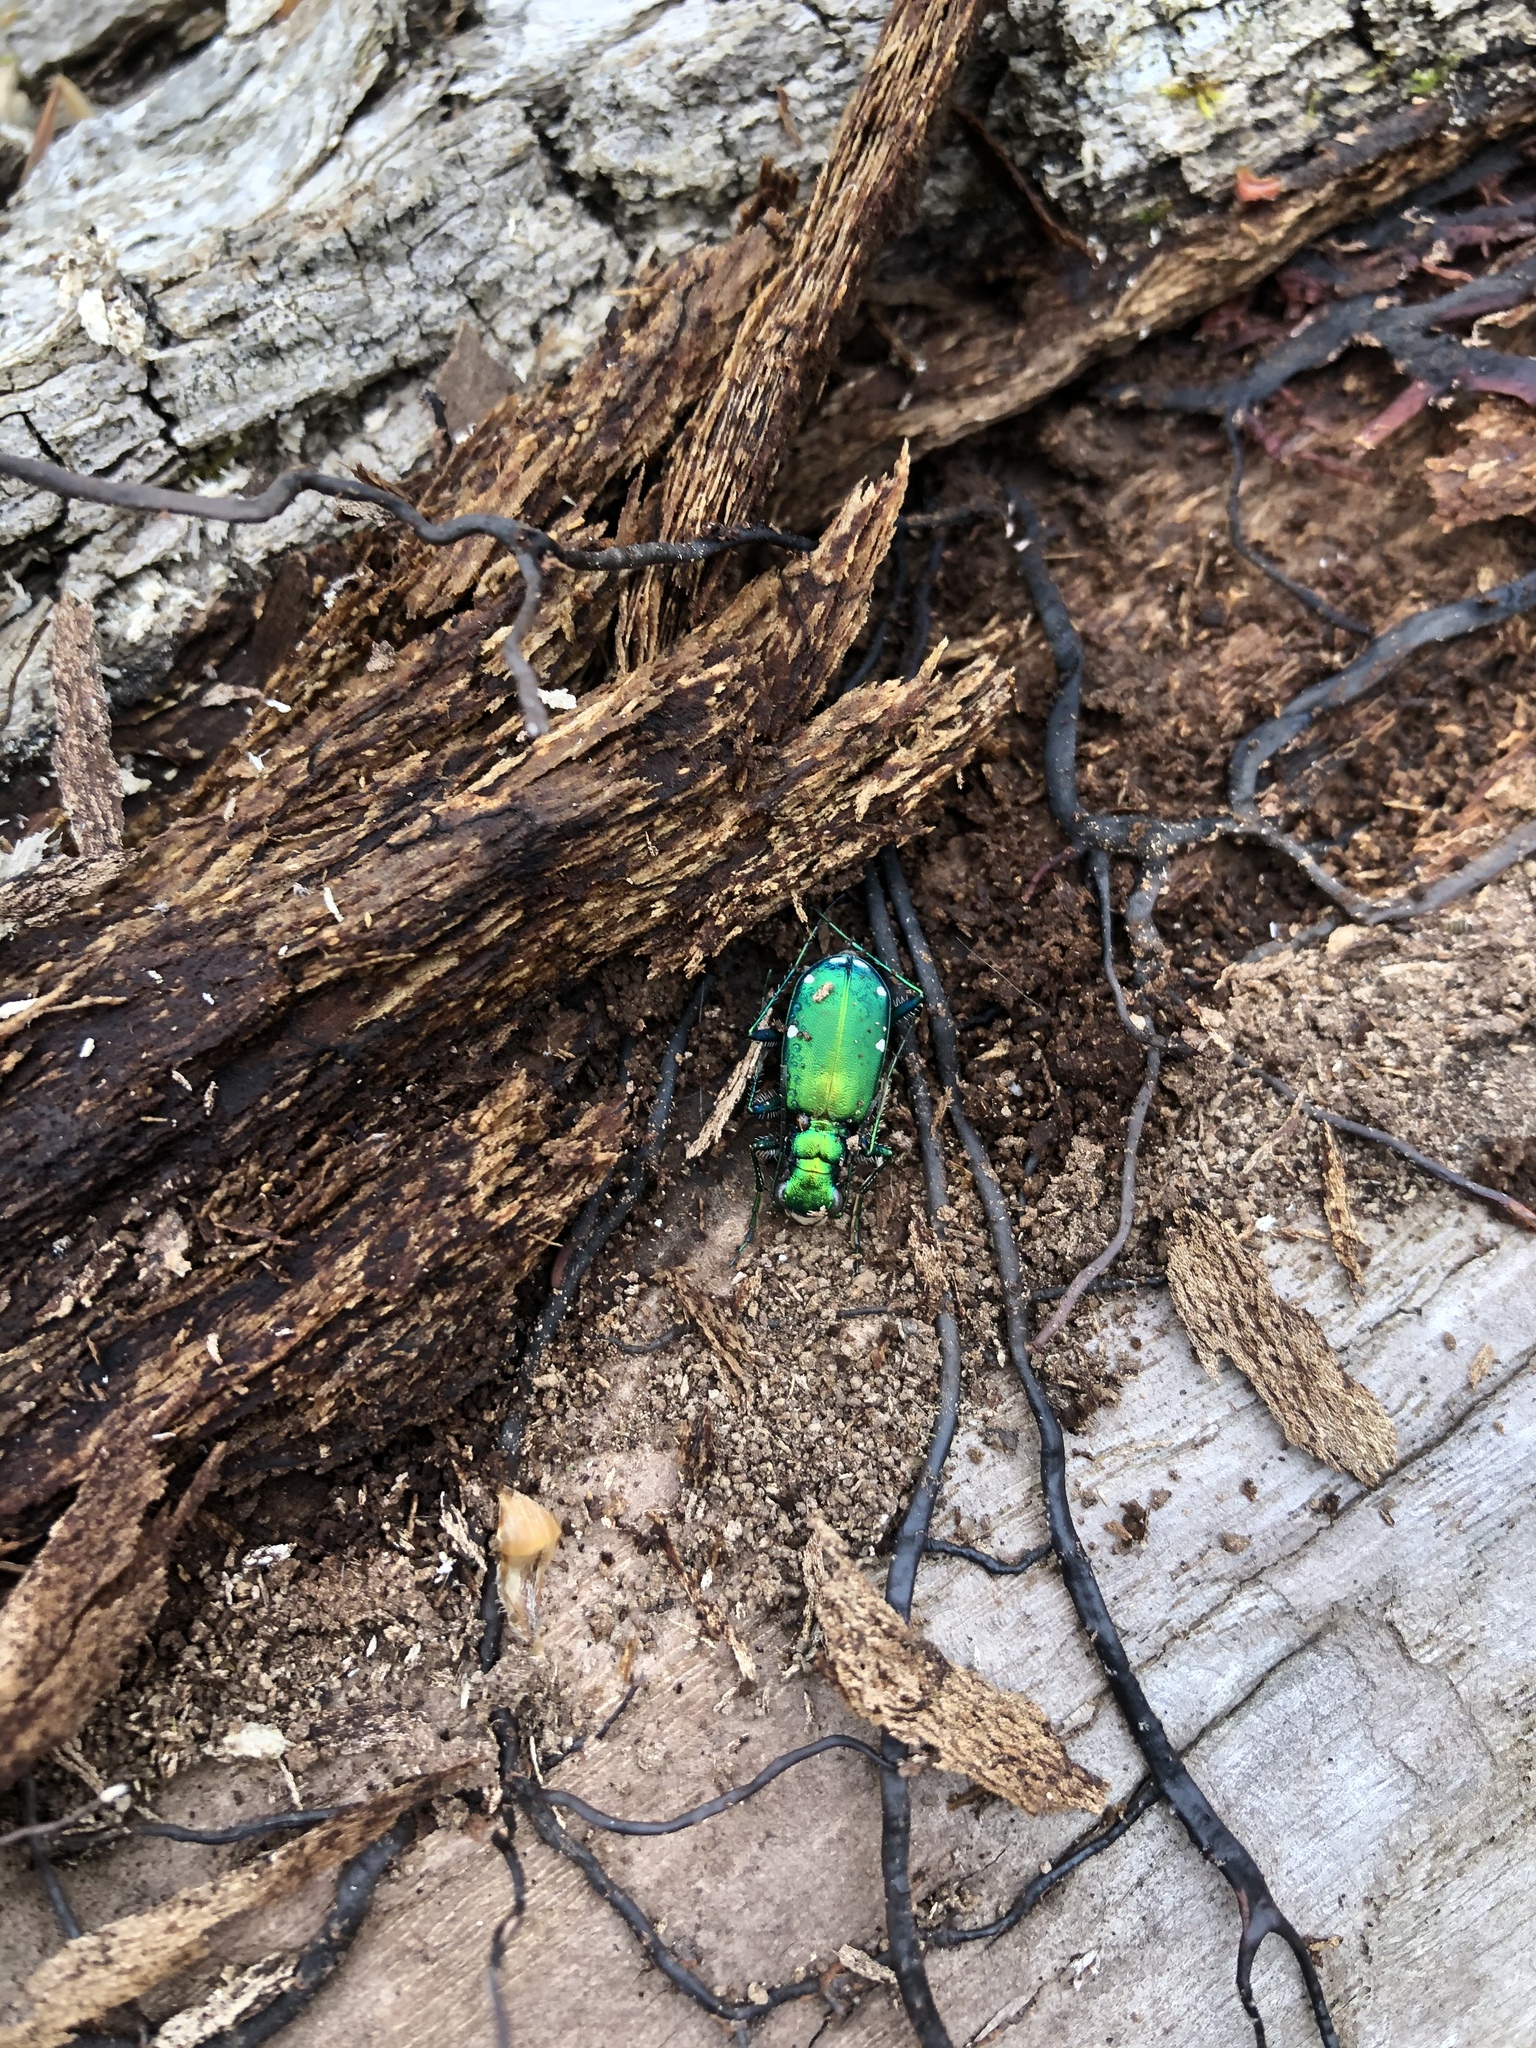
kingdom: Animalia
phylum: Arthropoda
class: Insecta
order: Coleoptera
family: Carabidae
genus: Cicindela
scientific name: Cicindela sexguttata
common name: Six-spotted tiger beetle
